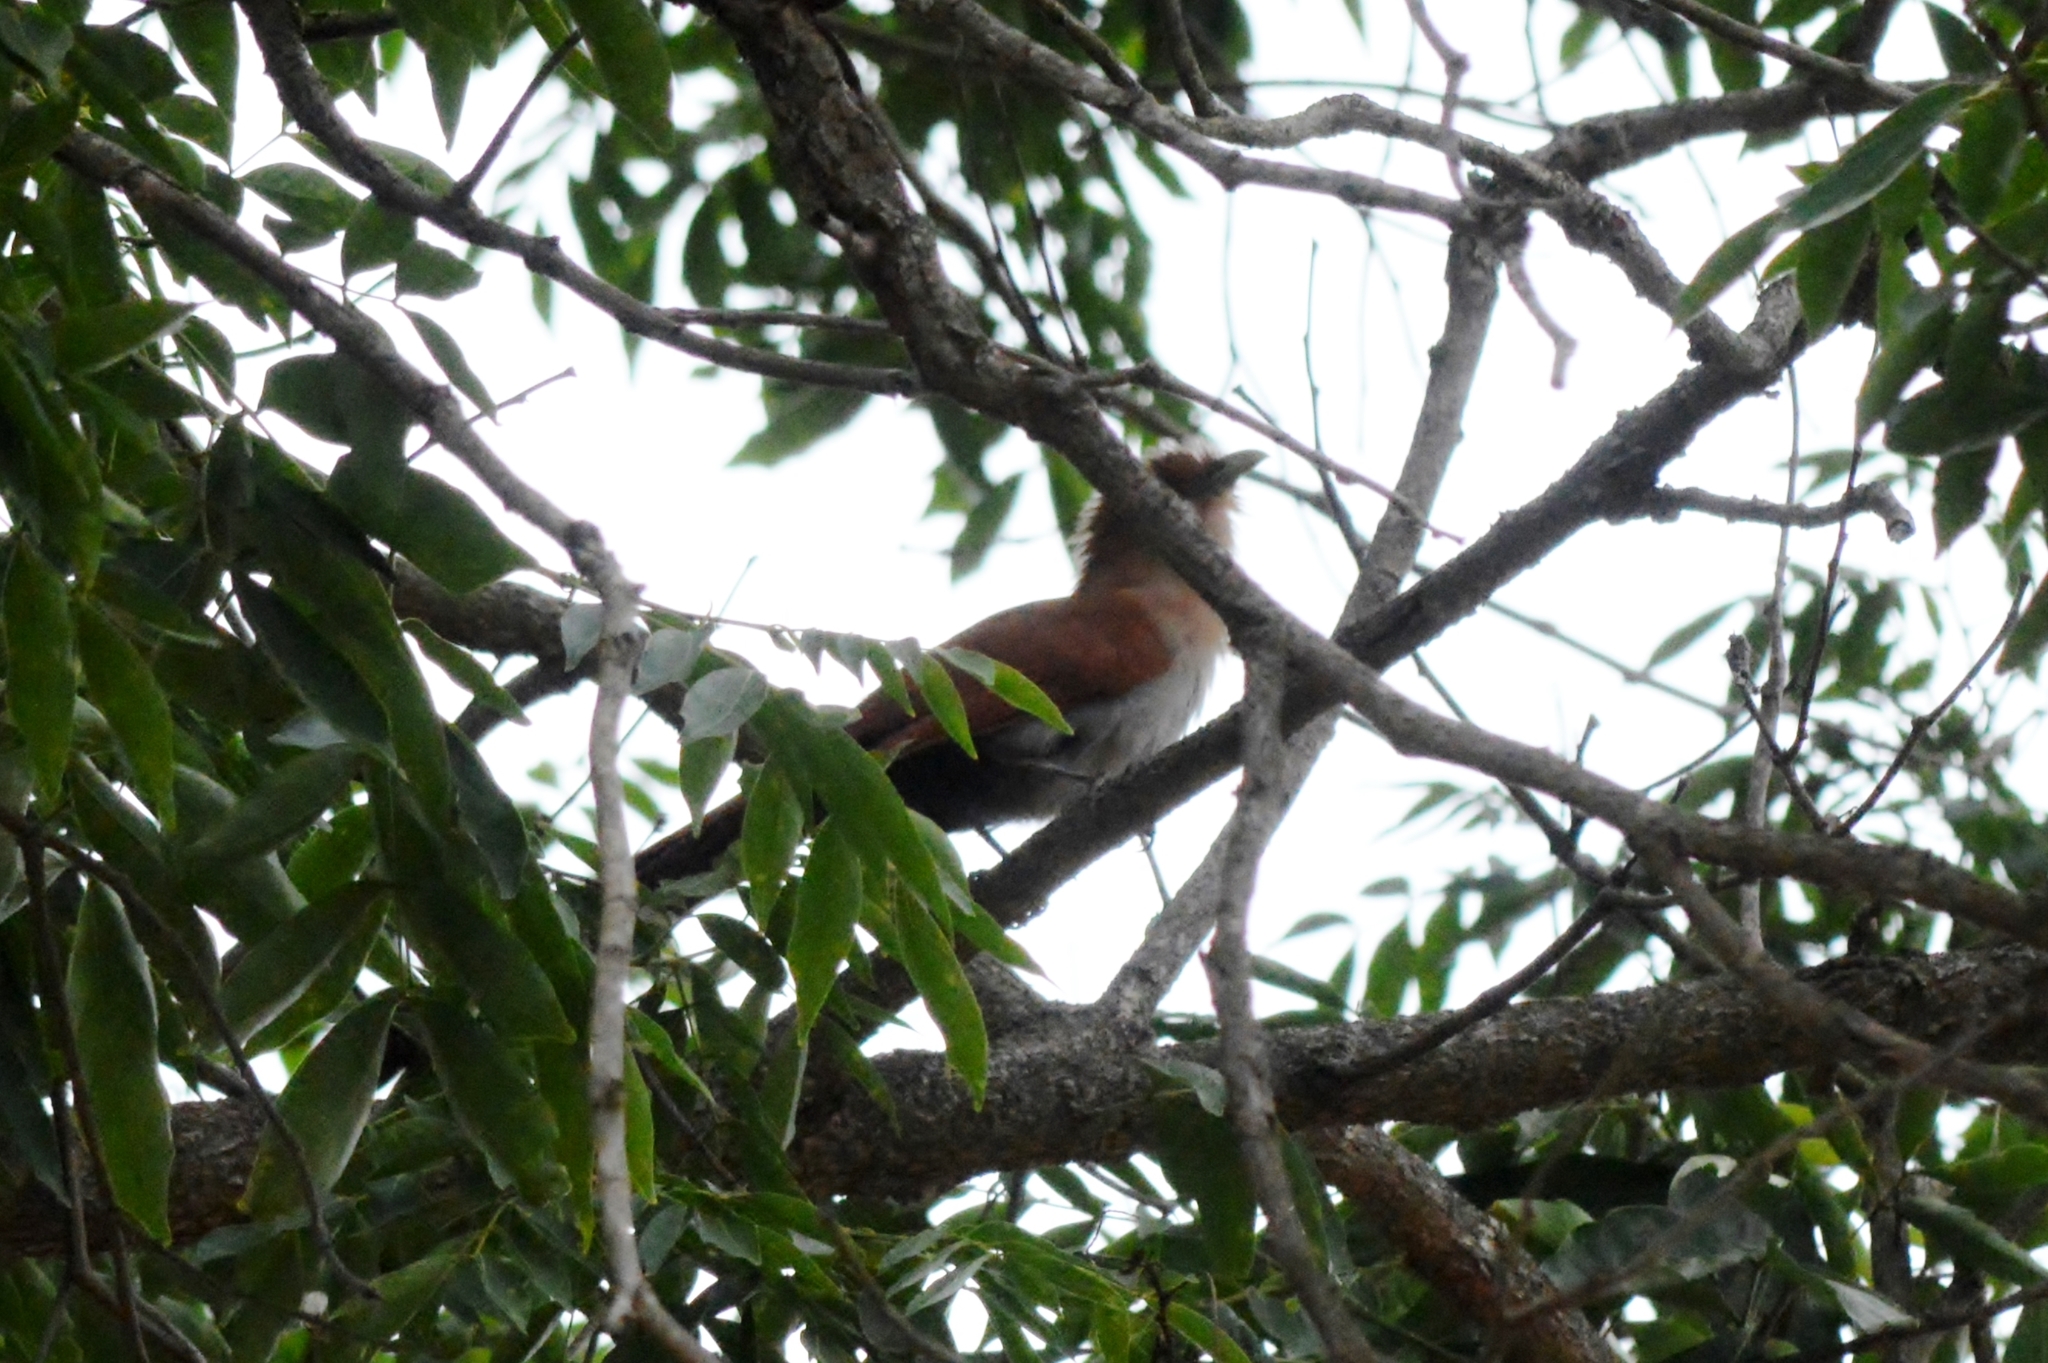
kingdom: Animalia
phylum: Chordata
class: Aves
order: Cuculiformes
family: Cuculidae
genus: Piaya
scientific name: Piaya cayana
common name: Squirrel cuckoo
